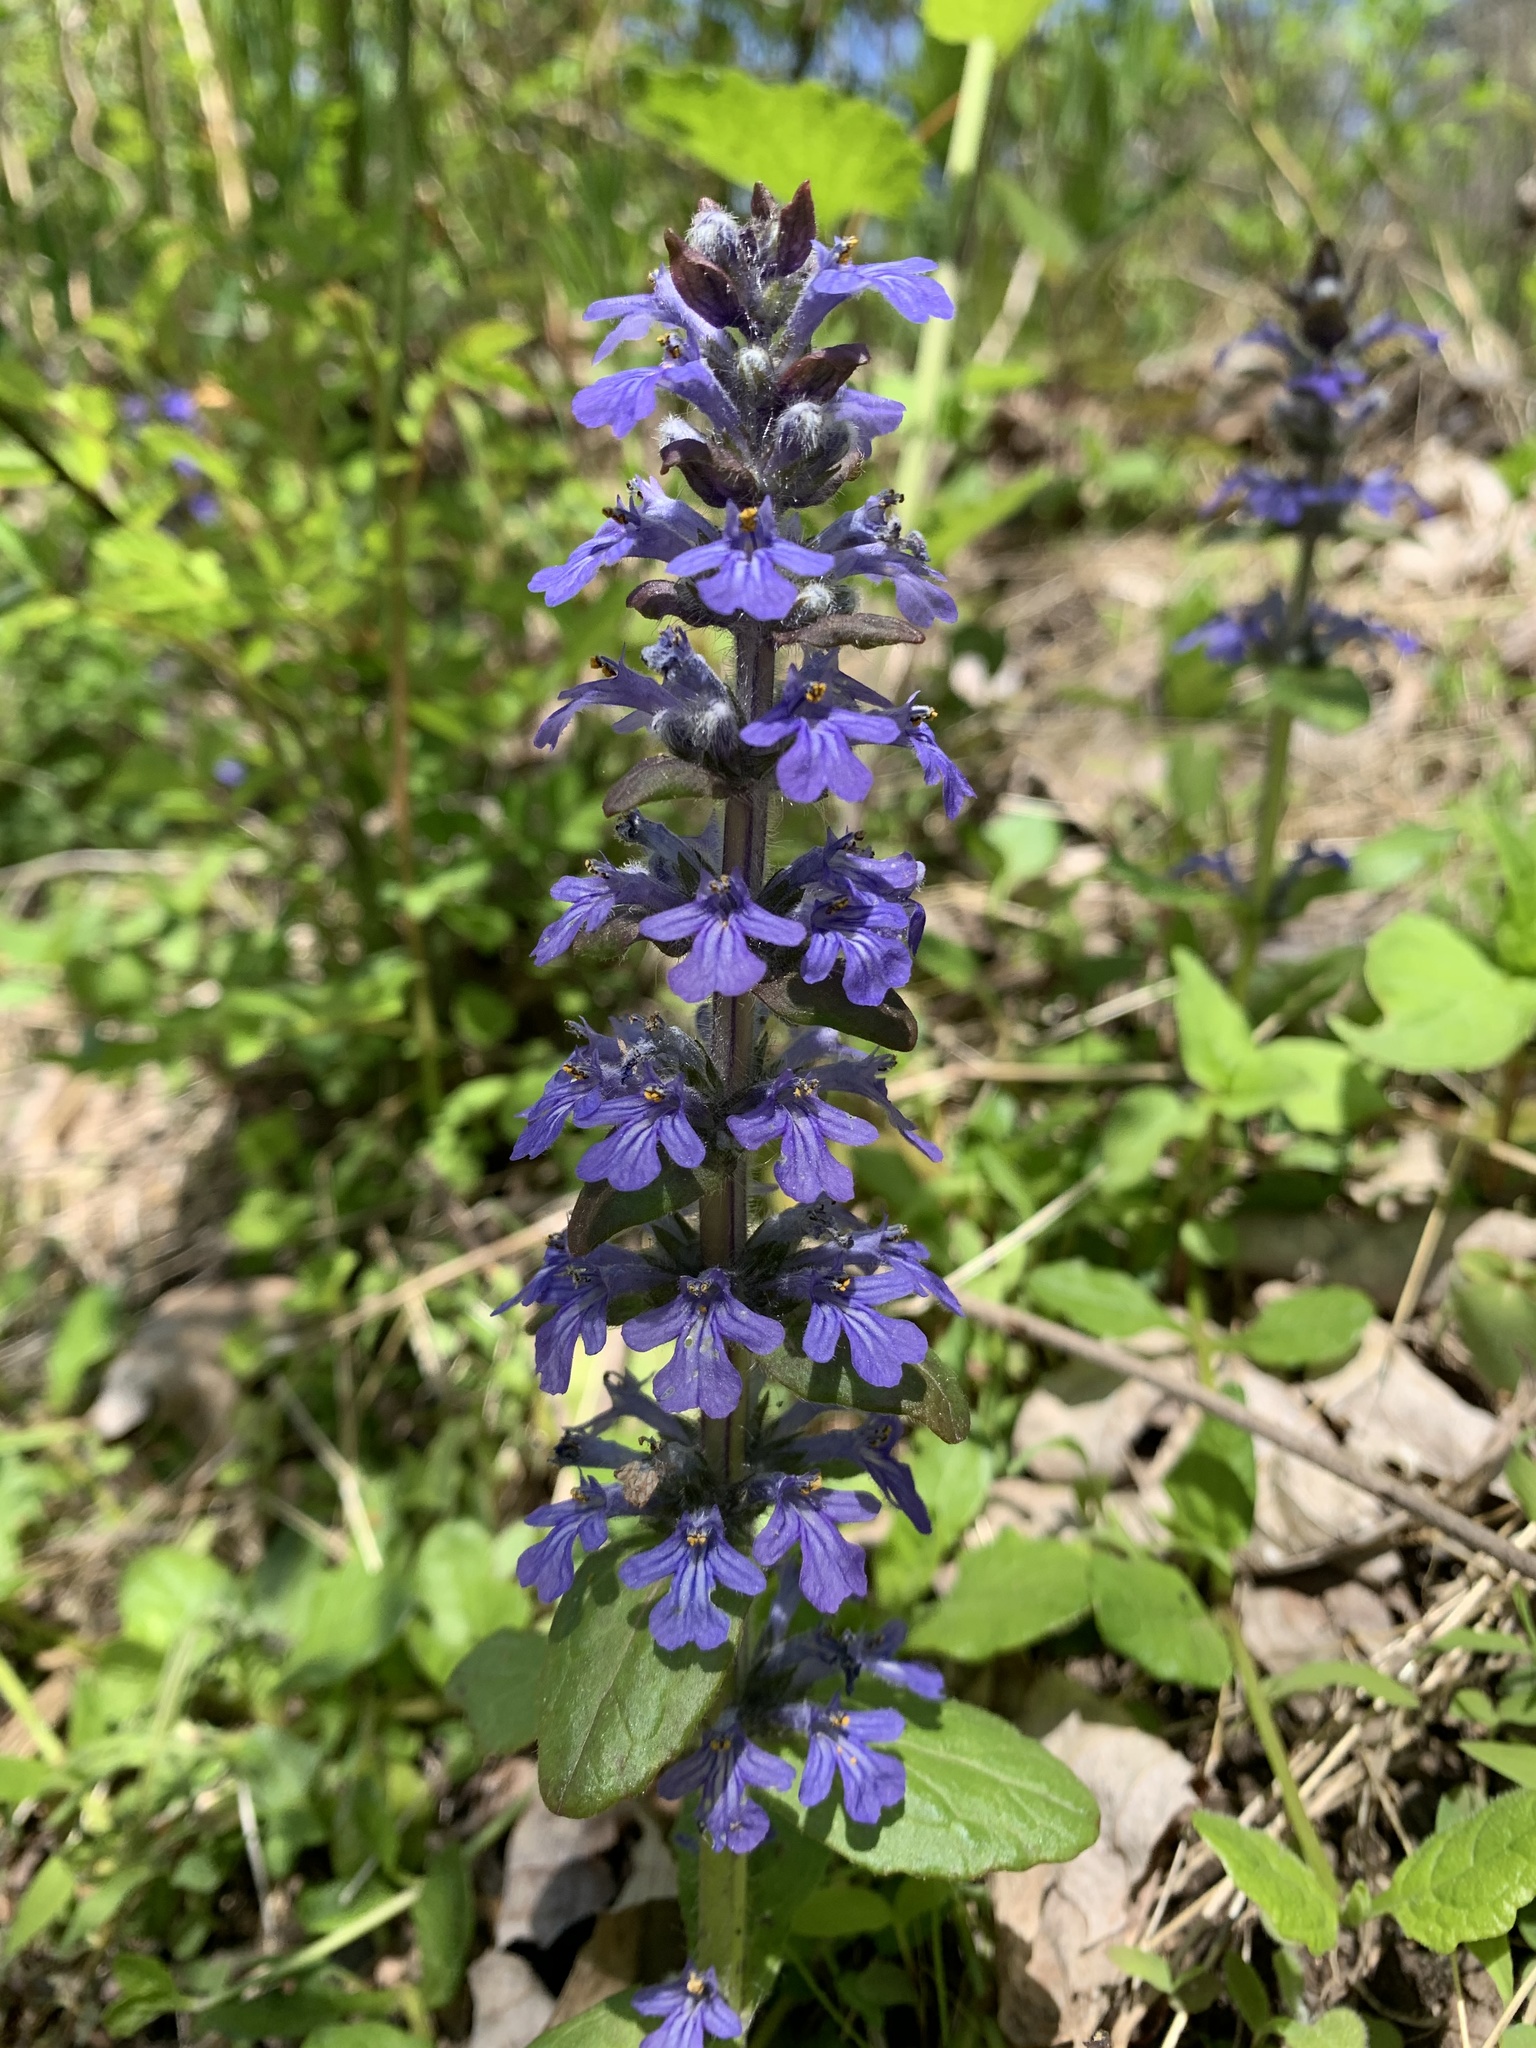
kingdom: Plantae
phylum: Tracheophyta
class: Magnoliopsida
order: Lamiales
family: Lamiaceae
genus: Ajuga
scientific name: Ajuga reptans
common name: Bugle
